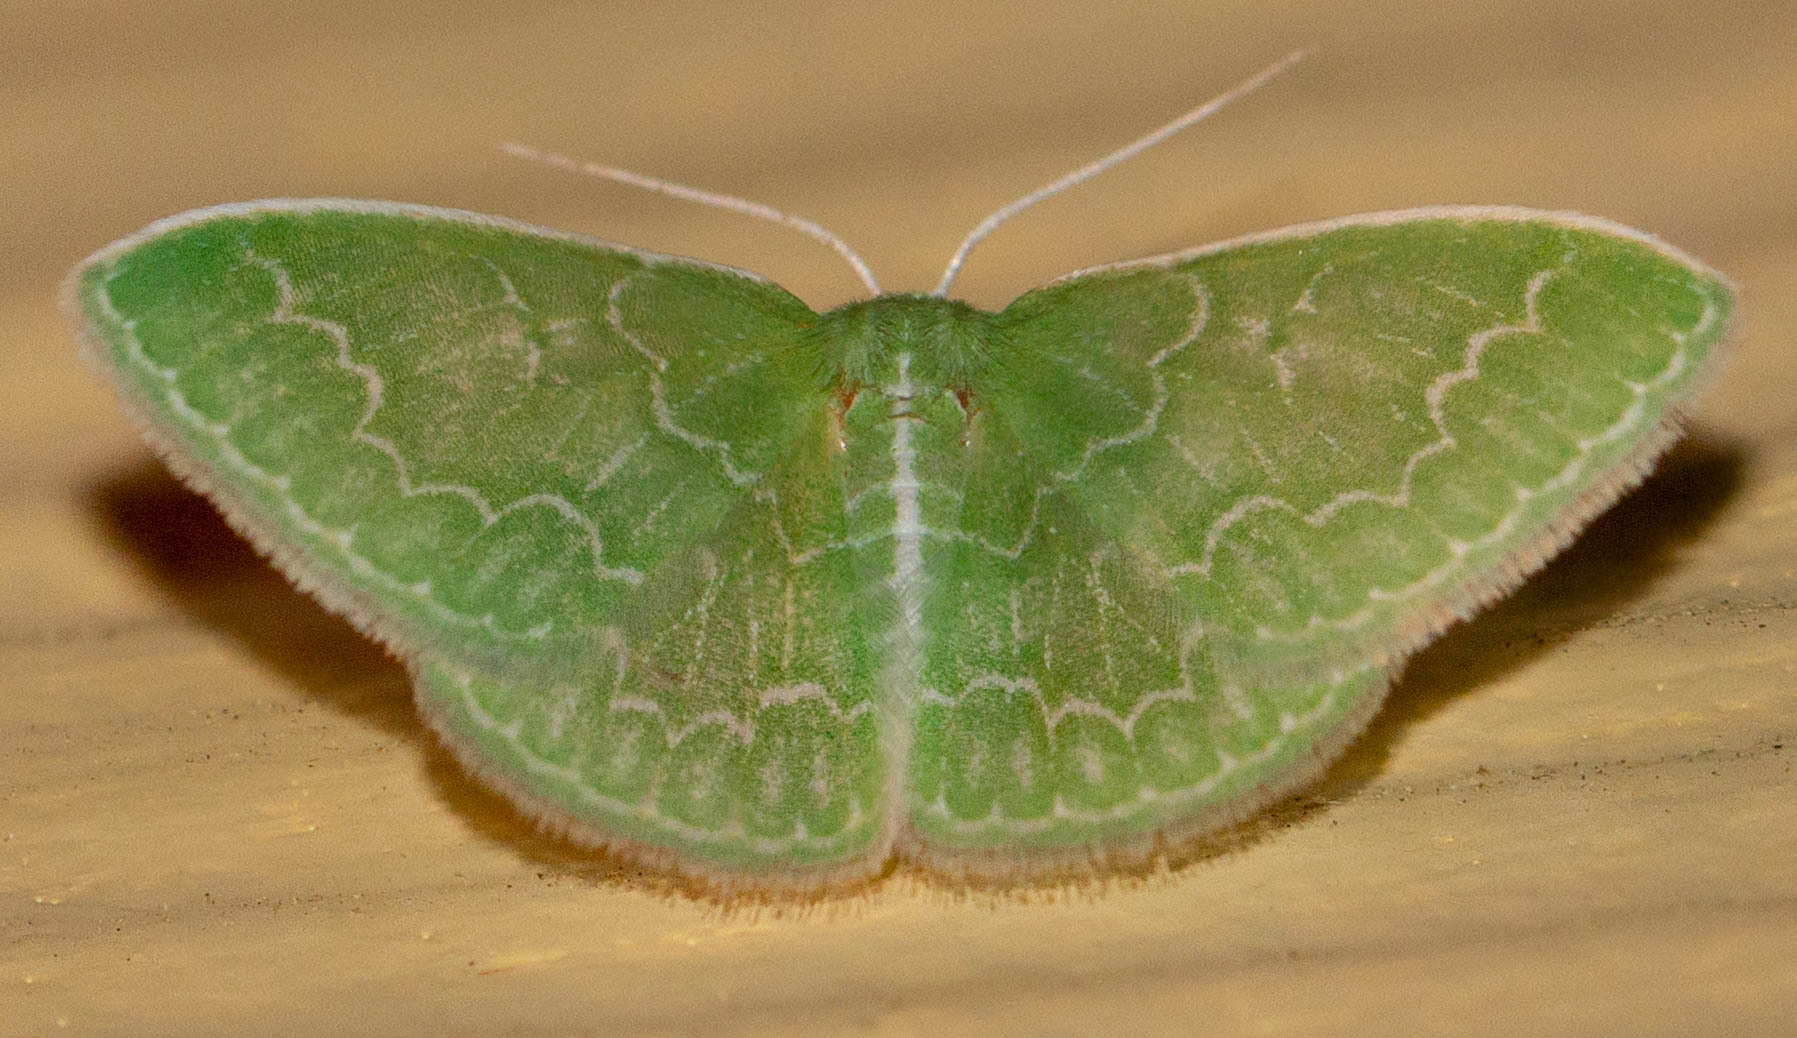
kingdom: Animalia
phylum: Arthropoda
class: Insecta
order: Lepidoptera
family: Geometridae
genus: Synchlora
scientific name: Synchlora frondaria
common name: Southern emerald
